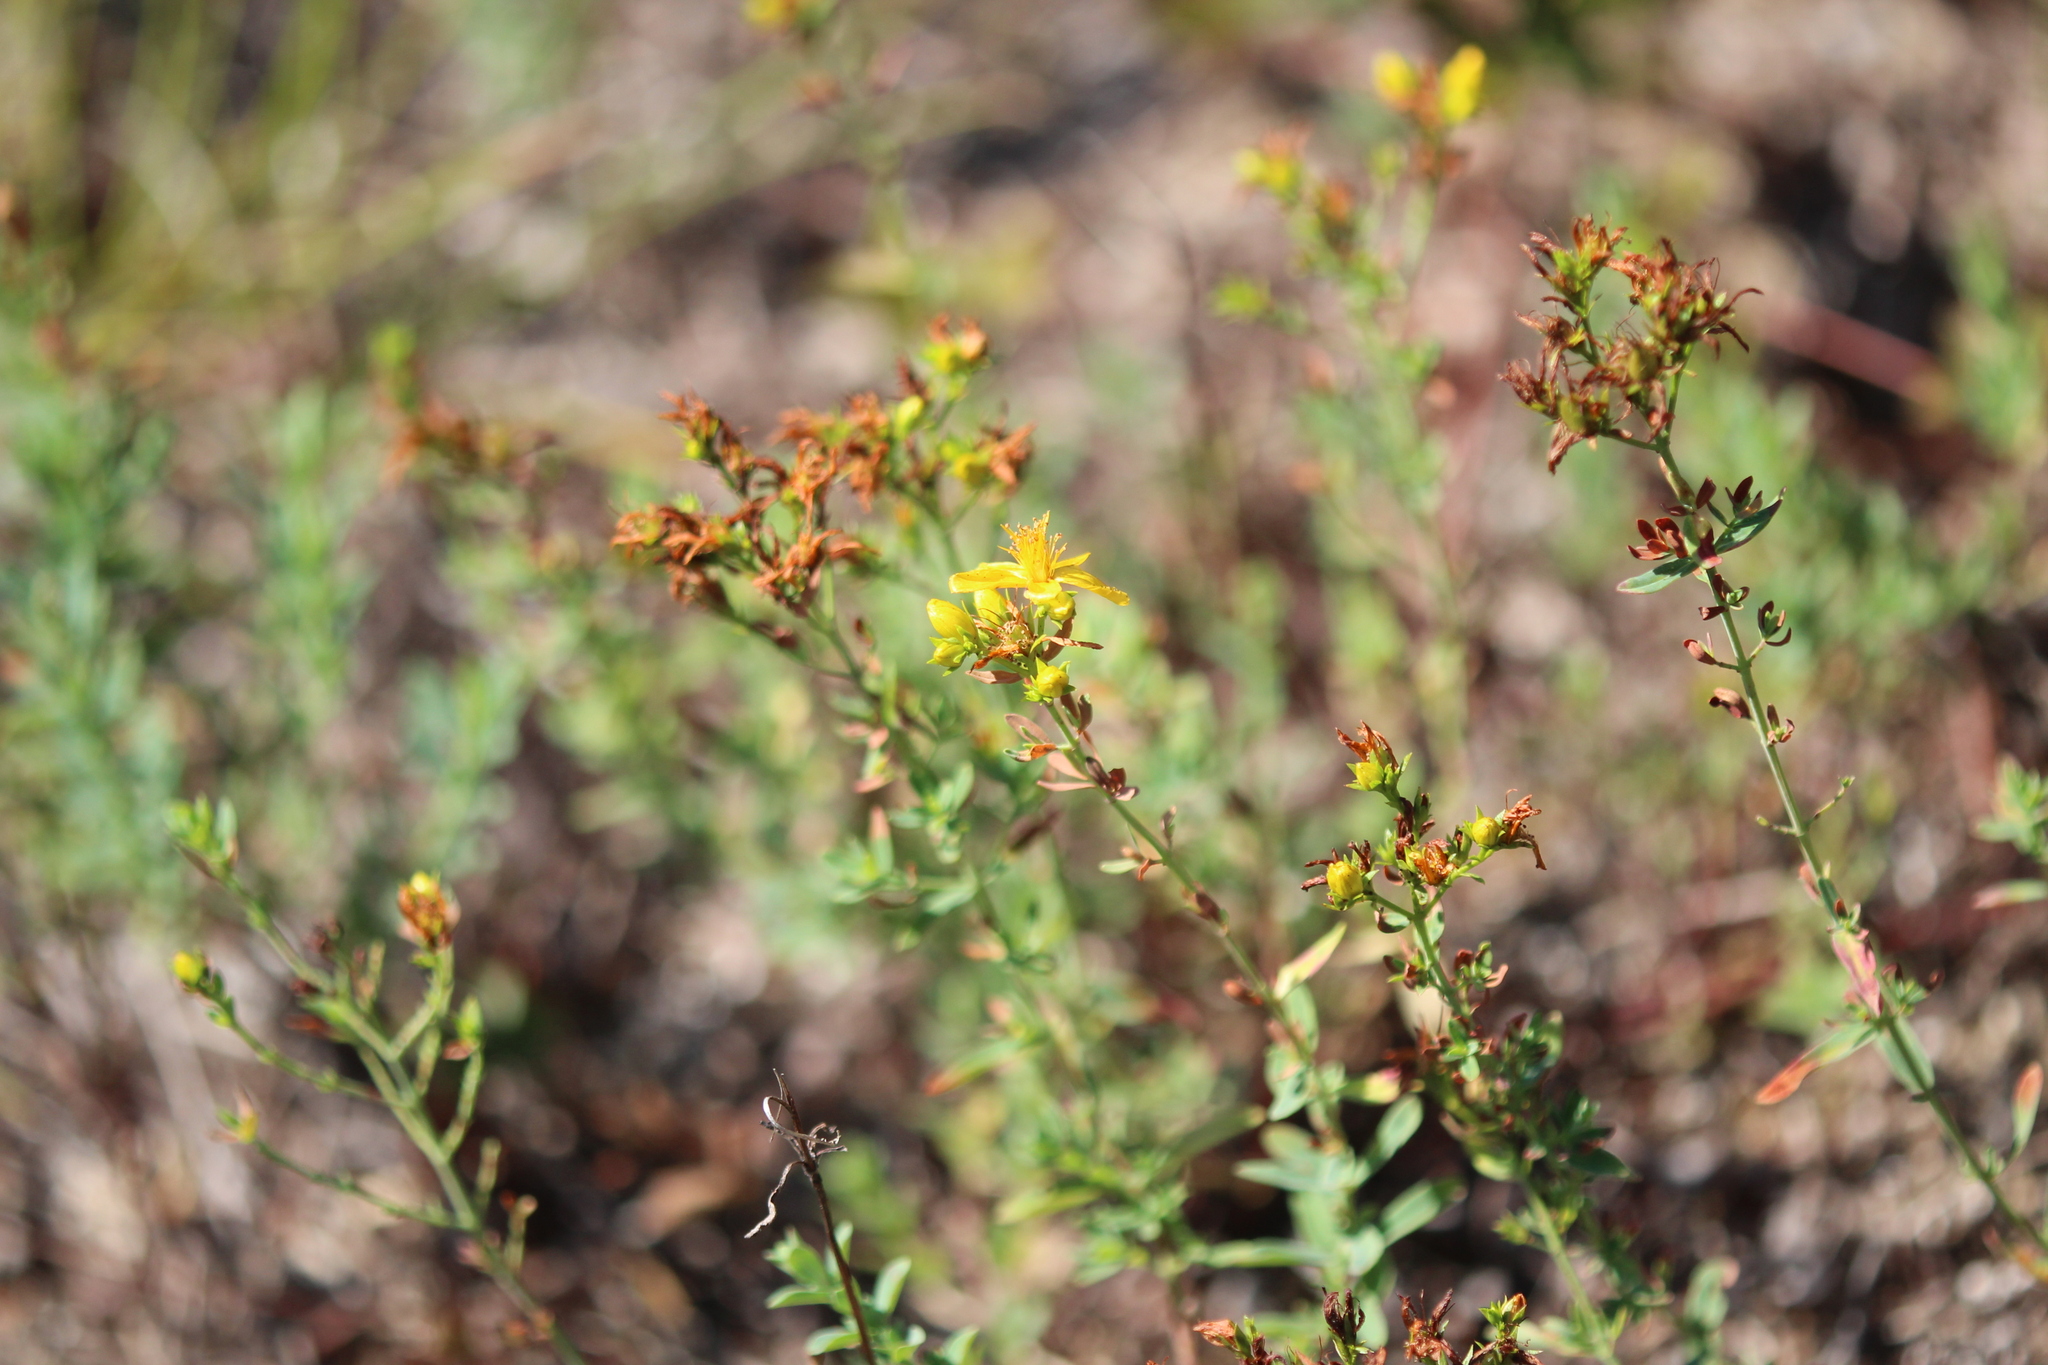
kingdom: Plantae
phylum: Tracheophyta
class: Magnoliopsida
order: Malpighiales
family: Hypericaceae
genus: Hypericum
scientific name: Hypericum perforatum
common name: Common st. johnswort
